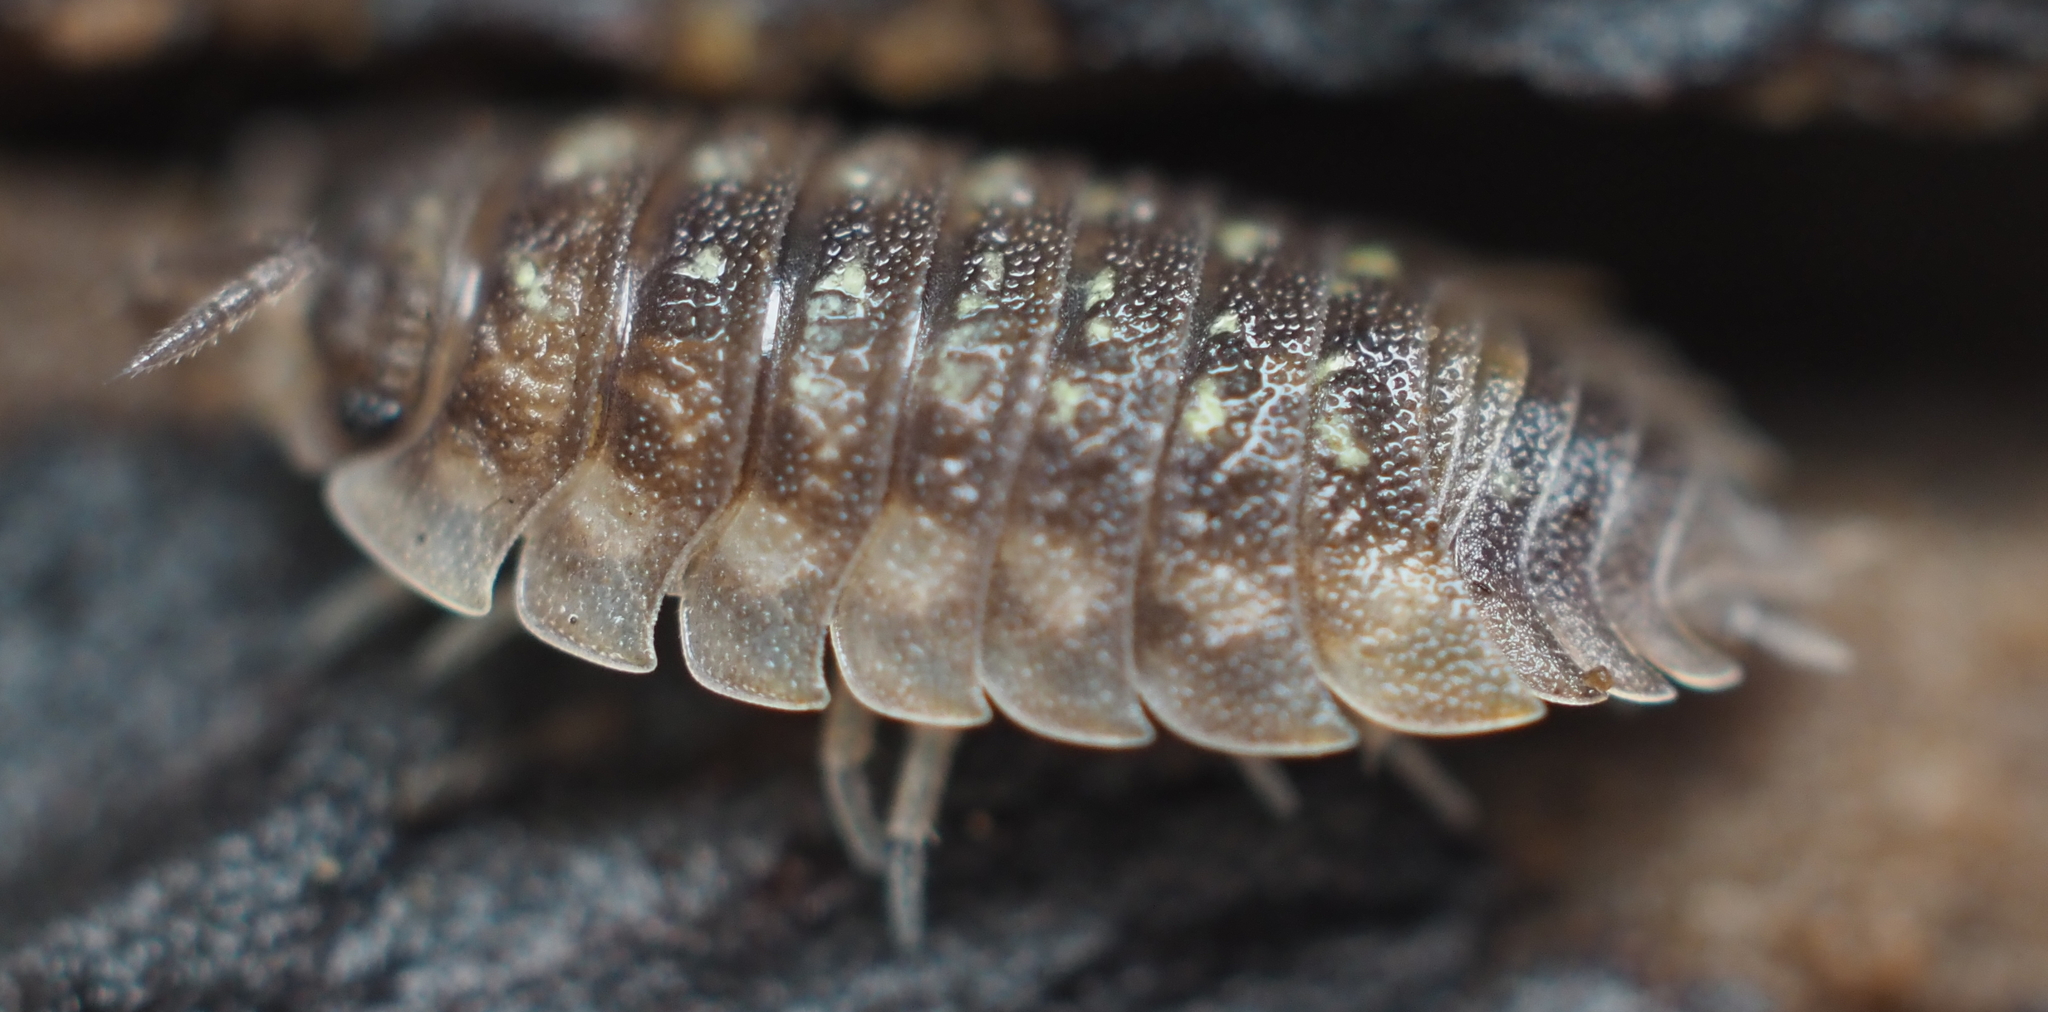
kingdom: Animalia
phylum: Arthropoda
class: Malacostraca
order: Isopoda
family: Oniscidae
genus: Oniscus
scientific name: Oniscus asellus
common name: Common shiny woodlouse
